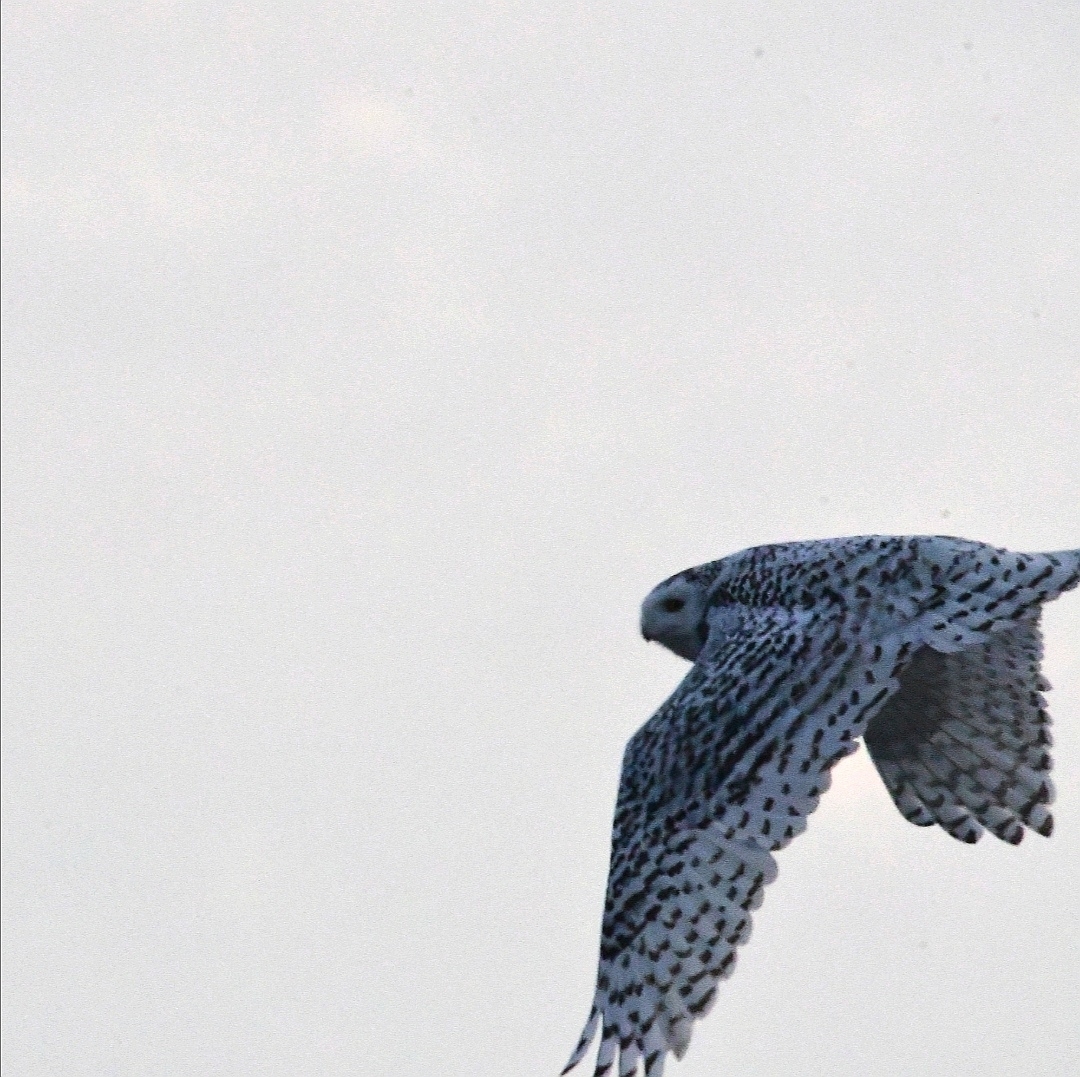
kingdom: Animalia
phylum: Chordata
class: Aves
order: Strigiformes
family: Strigidae
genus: Bubo
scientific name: Bubo scandiacus
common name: Snowy owl
